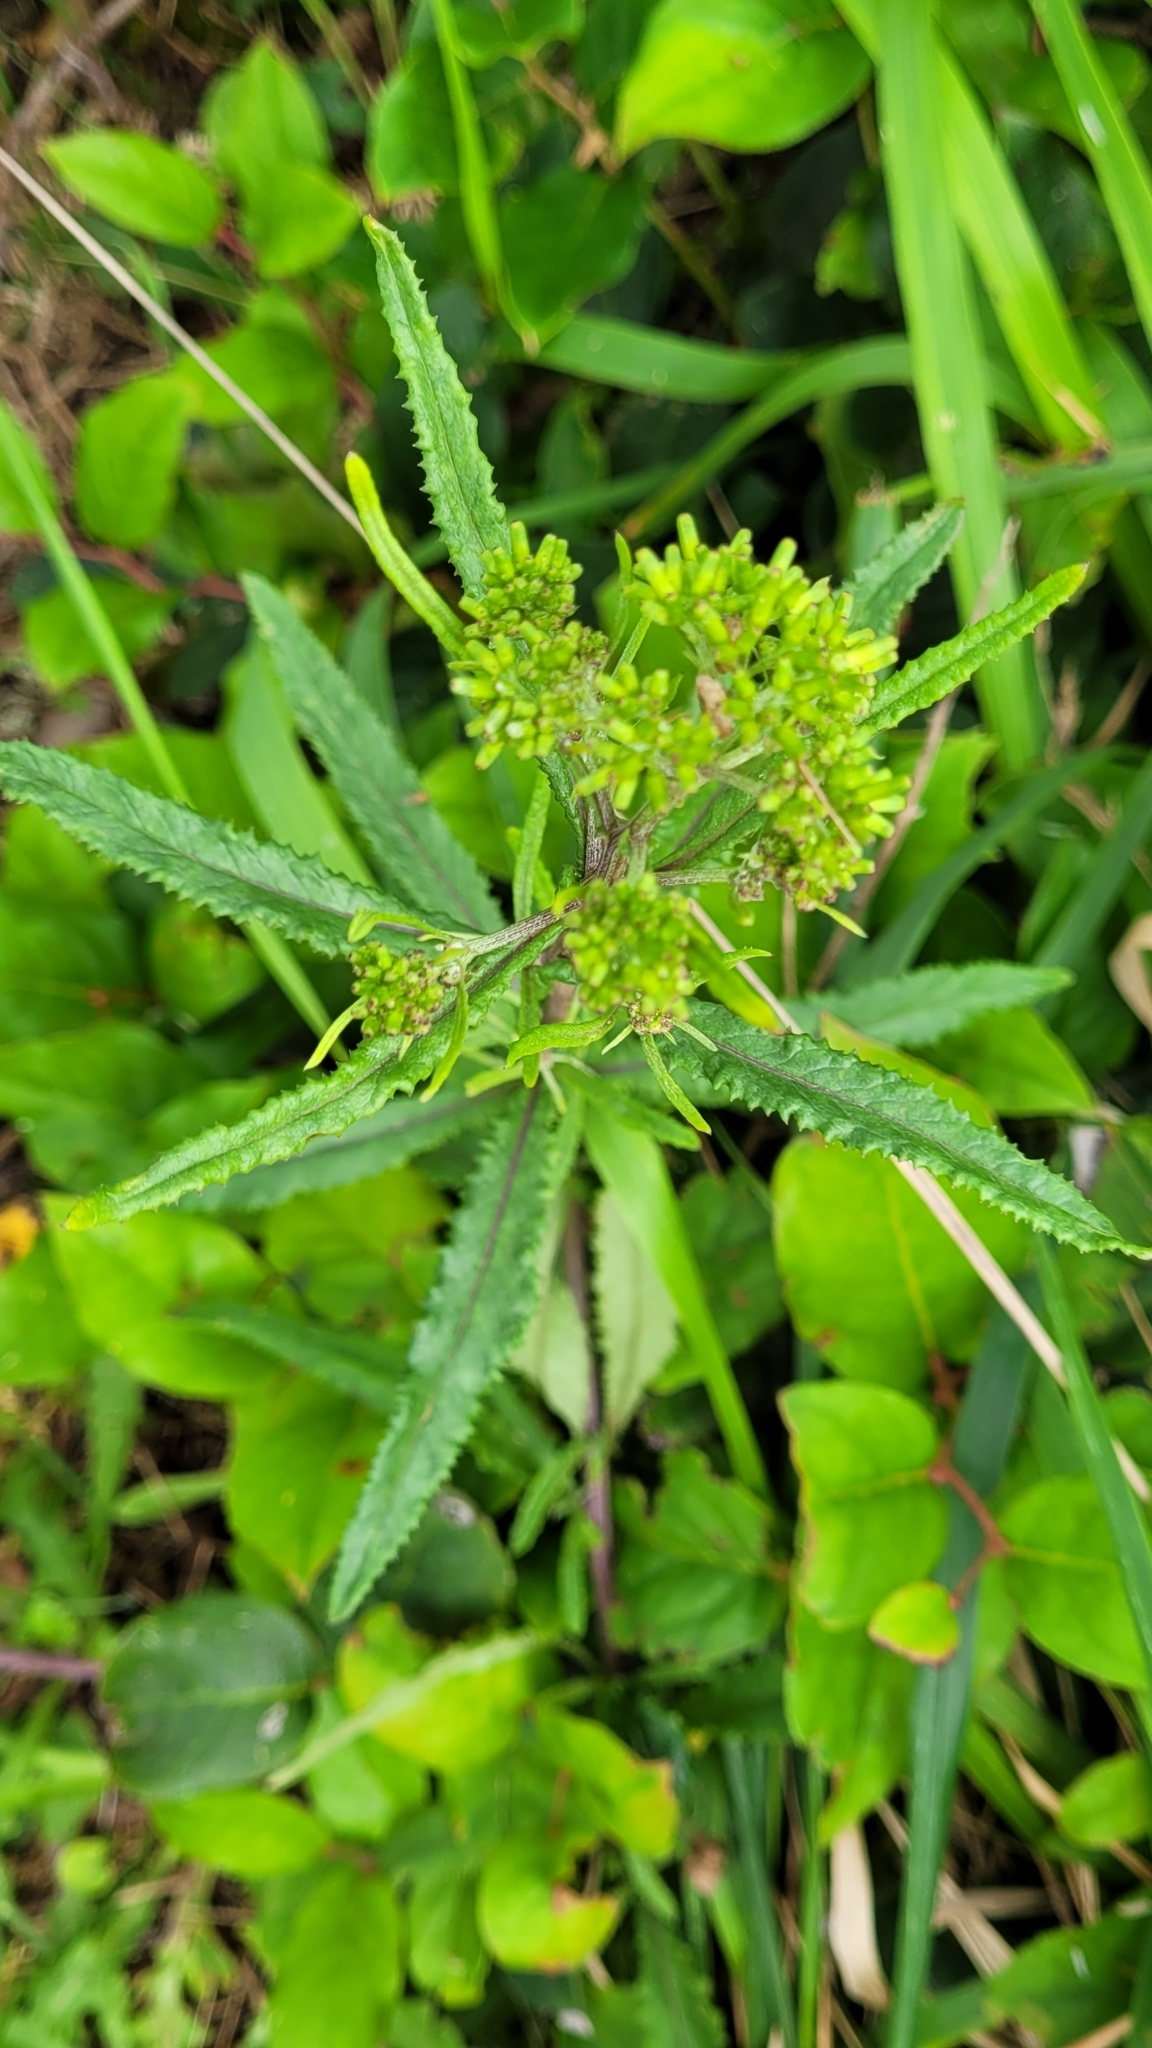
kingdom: Plantae
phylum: Tracheophyta
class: Magnoliopsida
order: Asterales
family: Asteraceae
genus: Senecio
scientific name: Senecio minimus
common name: Toothed fireweed
